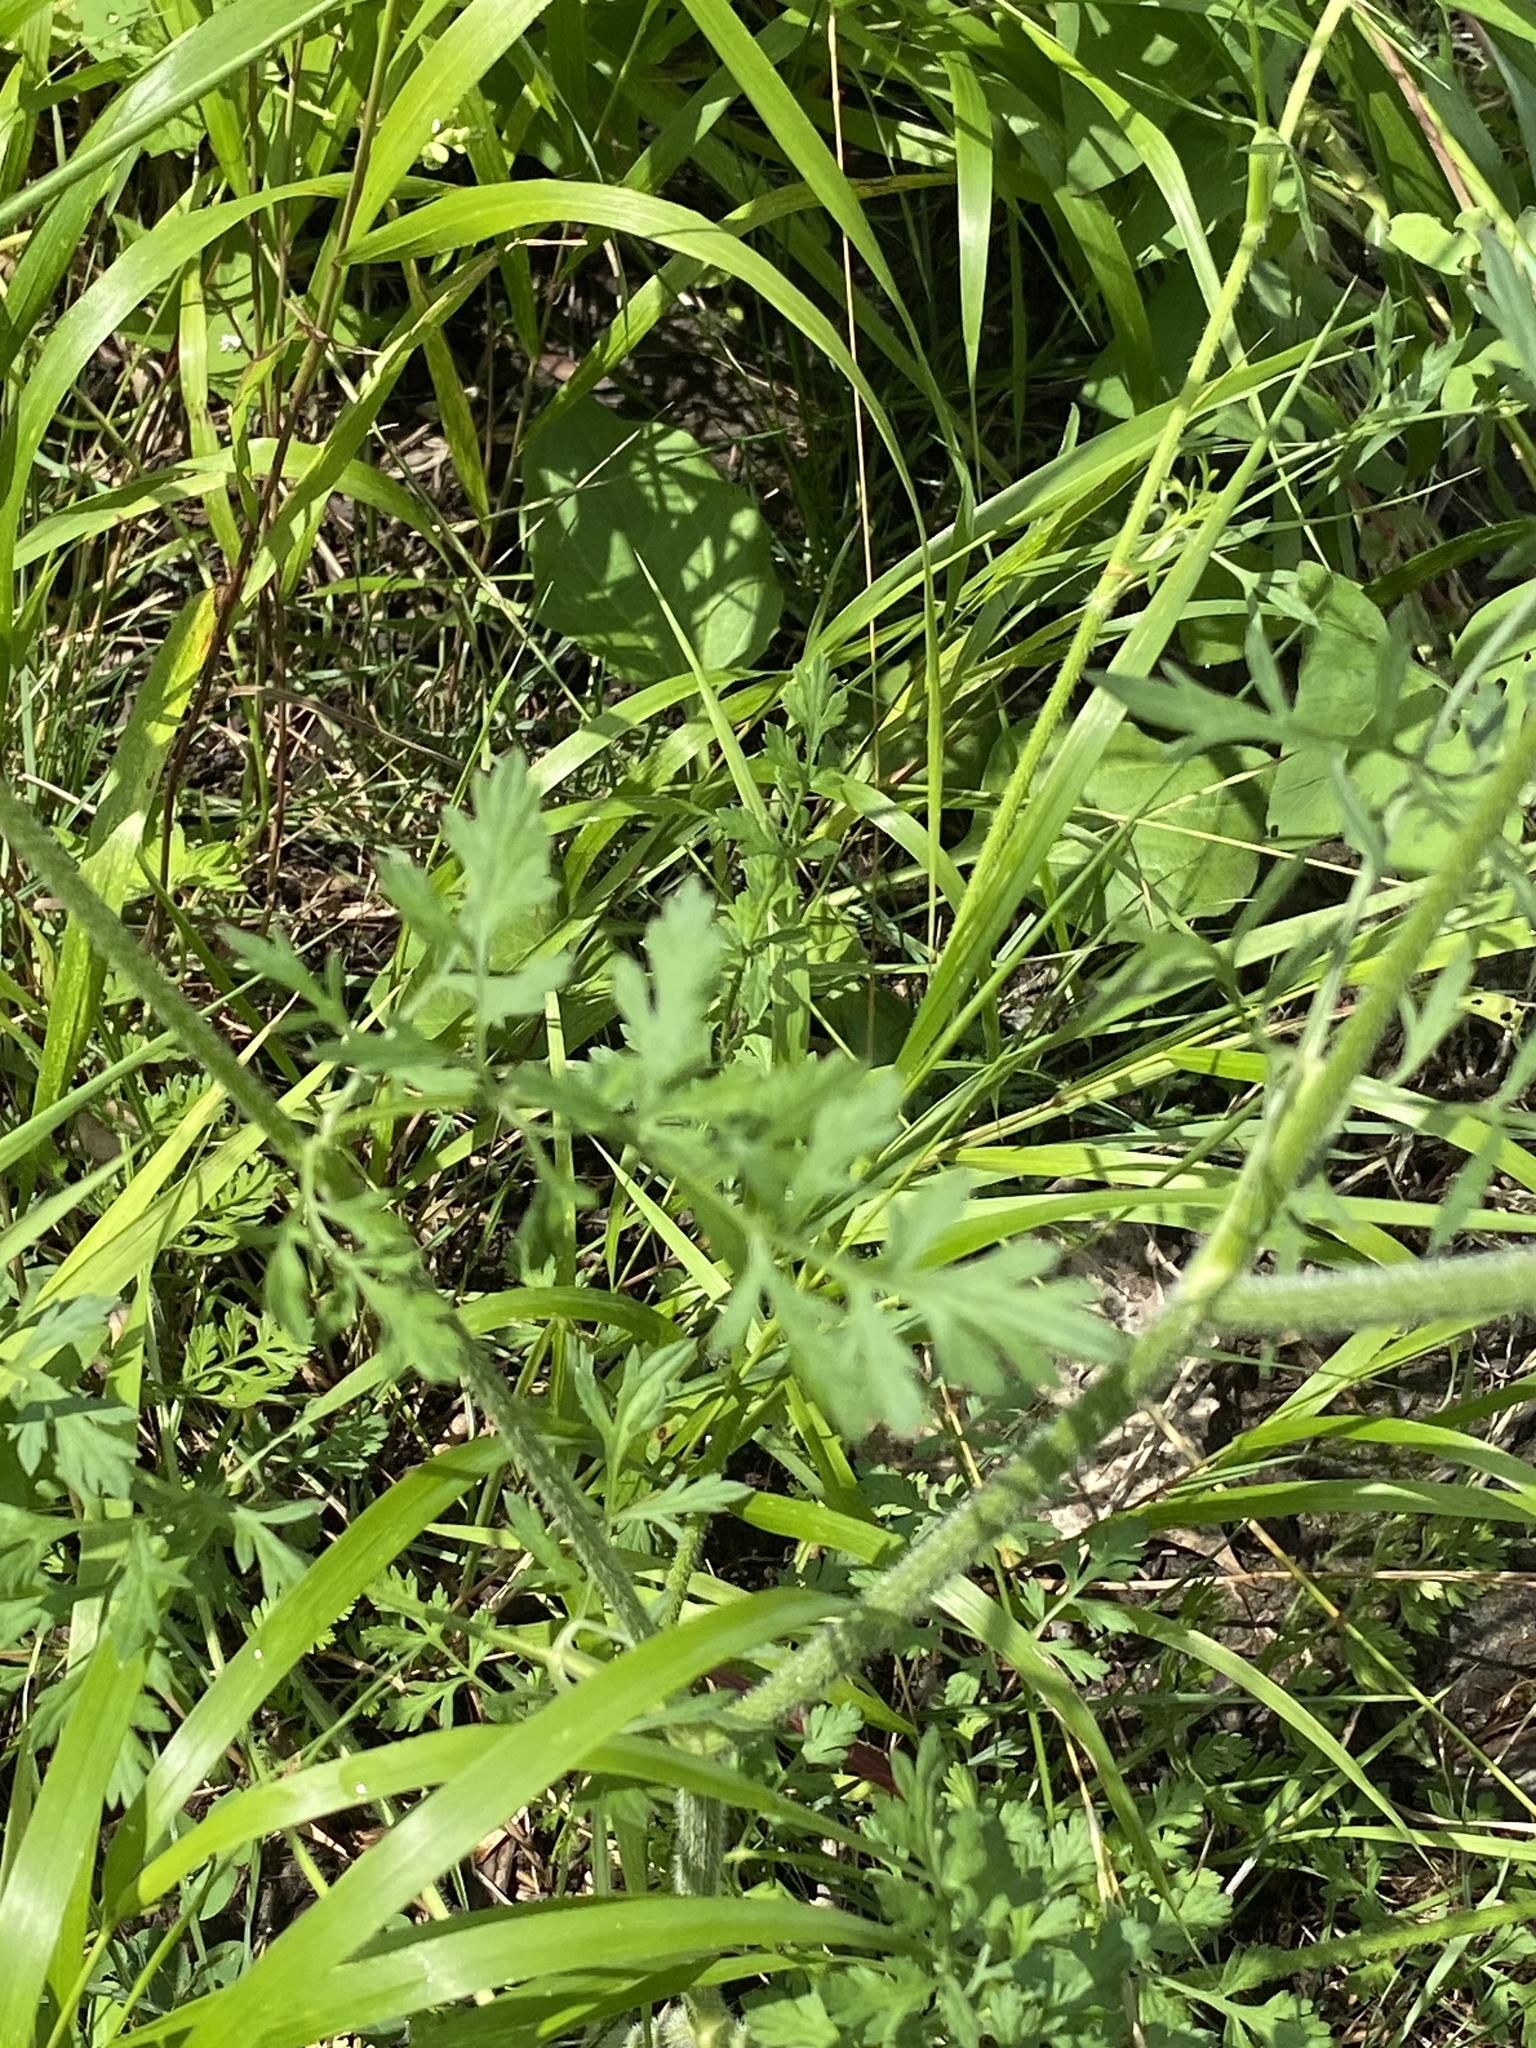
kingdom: Plantae
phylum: Tracheophyta
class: Magnoliopsida
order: Apiales
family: Apiaceae
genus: Daucus
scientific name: Daucus carota
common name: Wild carrot
